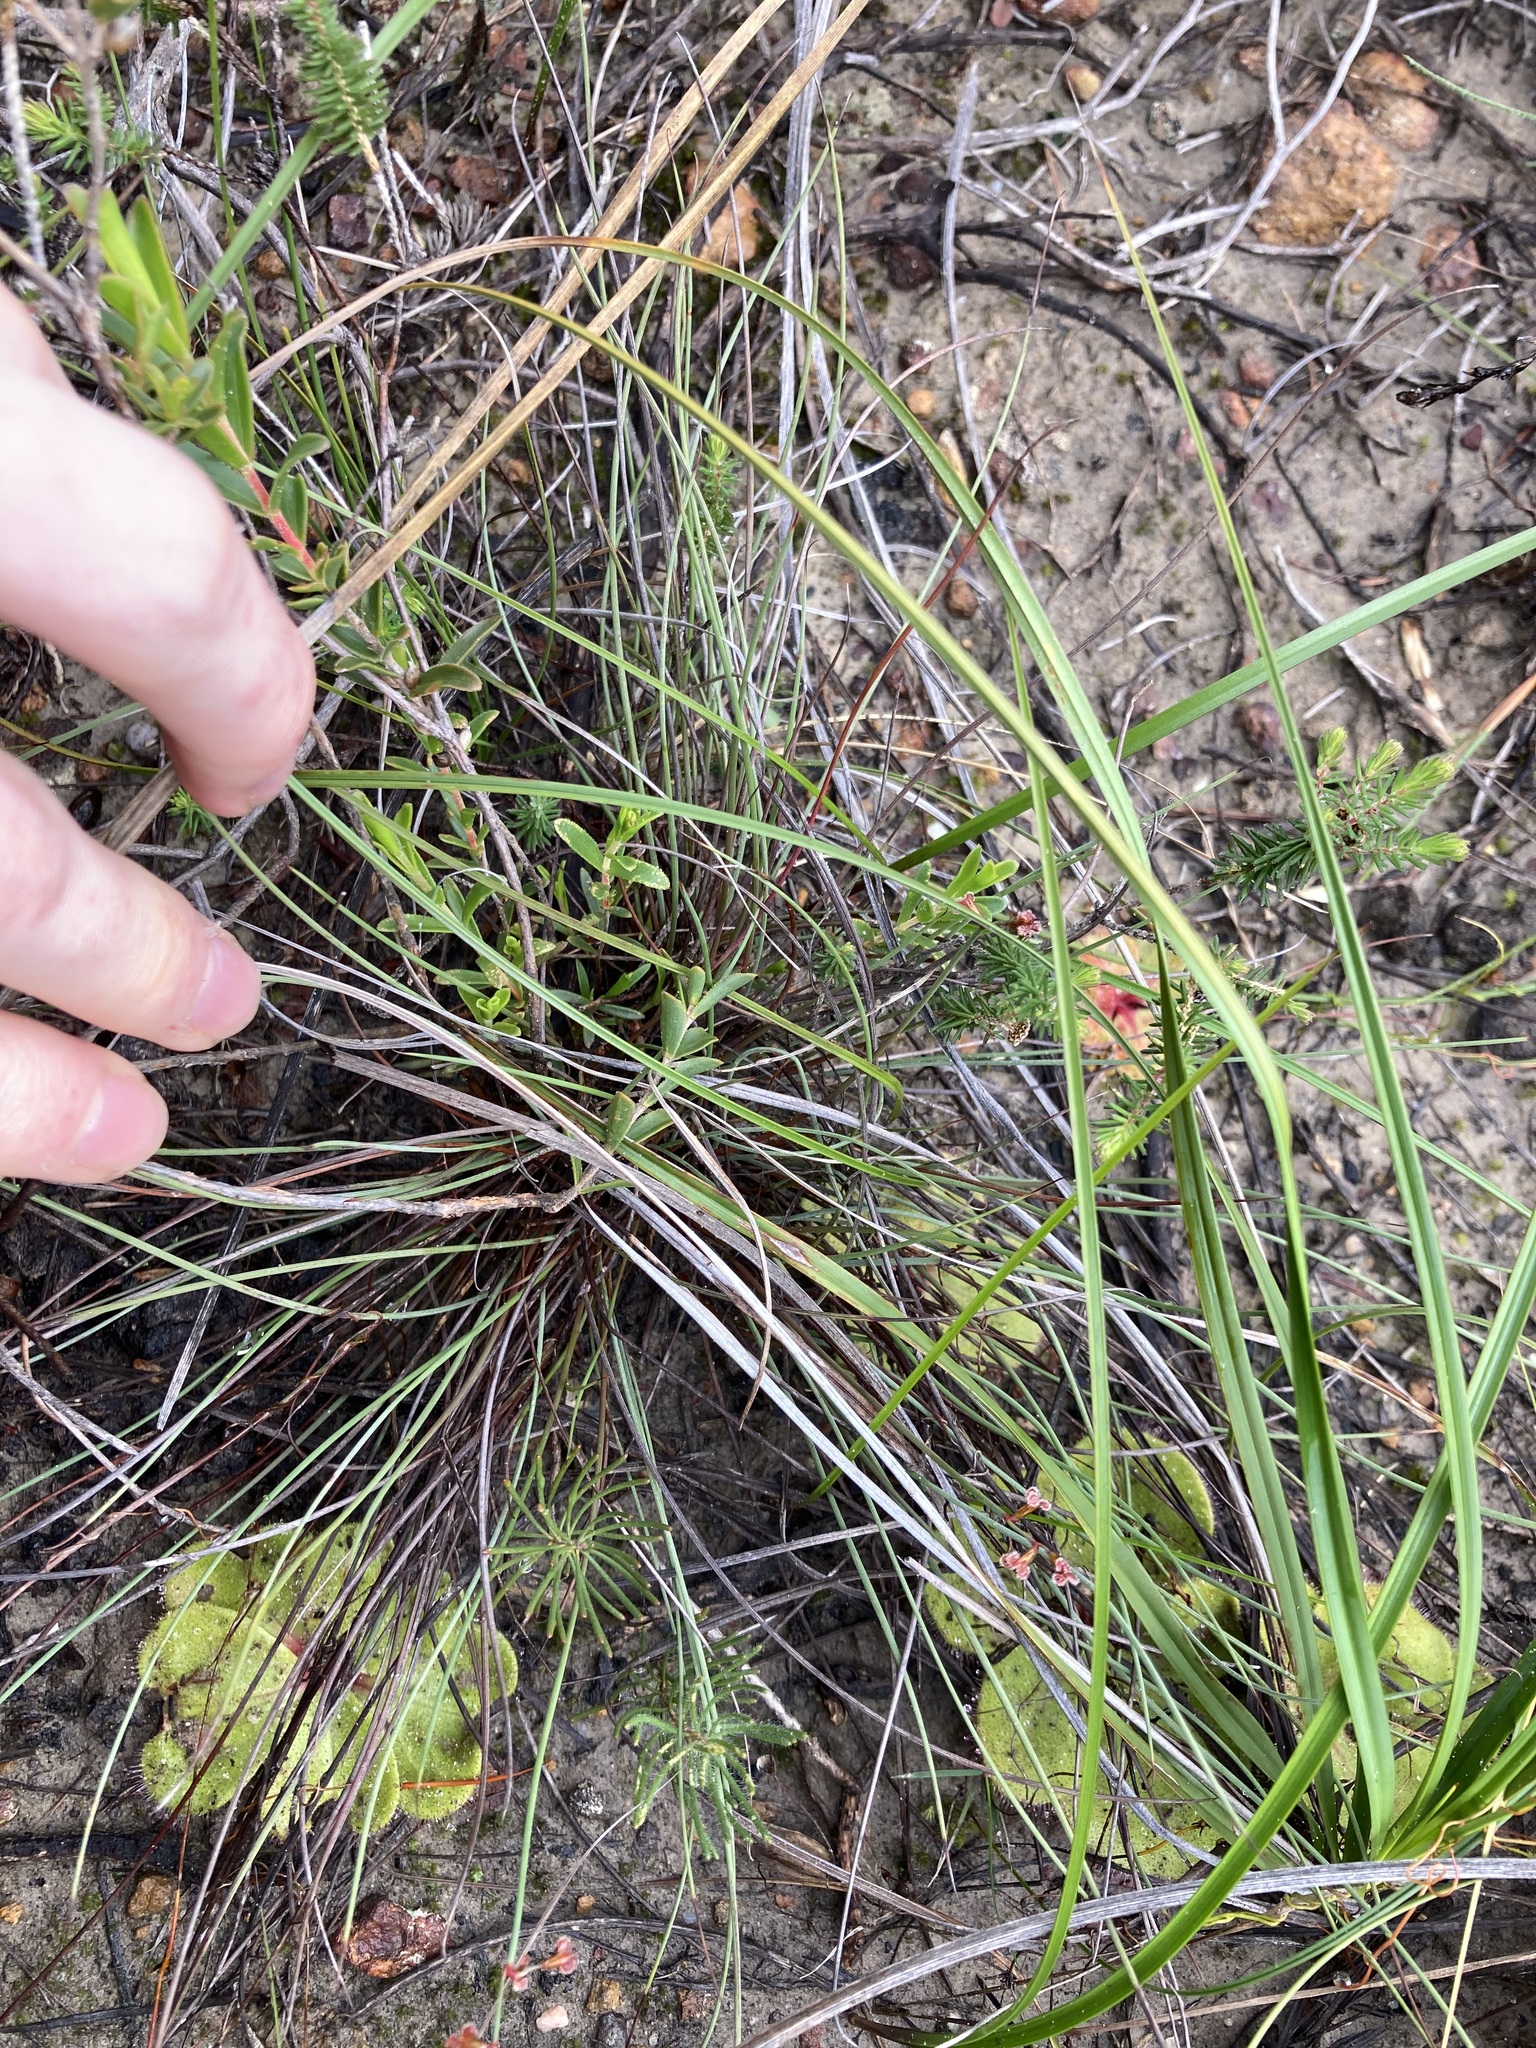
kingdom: Plantae
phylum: Tracheophyta
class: Liliopsida
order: Poales
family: Restionaceae
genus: Anarthria
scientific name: Anarthria humilis
